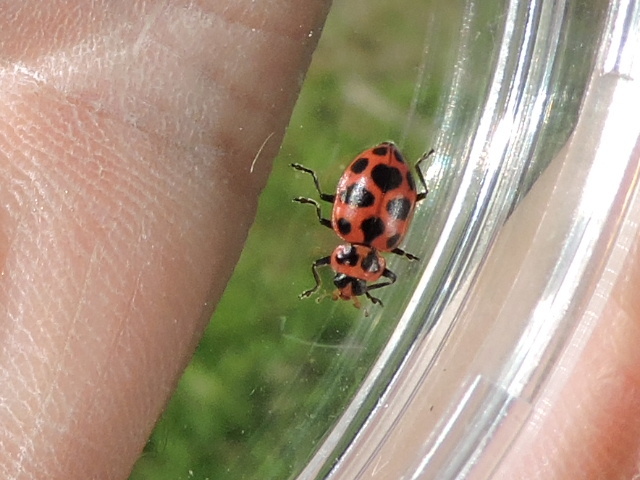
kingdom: Animalia
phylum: Arthropoda
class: Insecta
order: Coleoptera
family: Coccinellidae
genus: Coleomegilla
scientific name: Coleomegilla maculata
